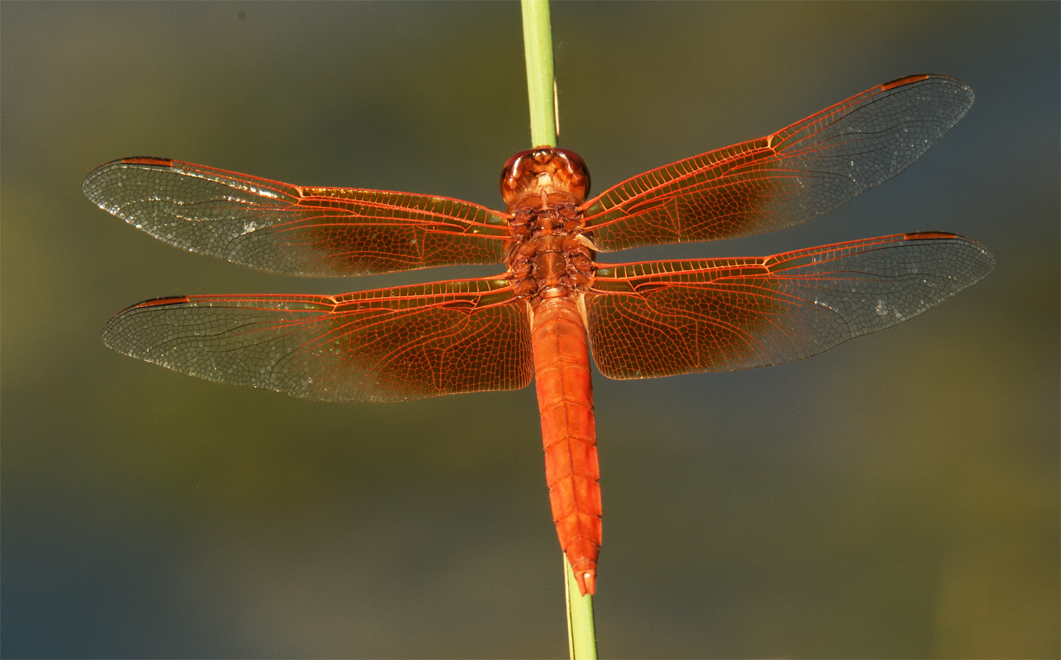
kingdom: Animalia
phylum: Arthropoda
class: Insecta
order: Odonata
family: Libellulidae
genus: Libellula
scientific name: Libellula saturata
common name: Flame skimmer
